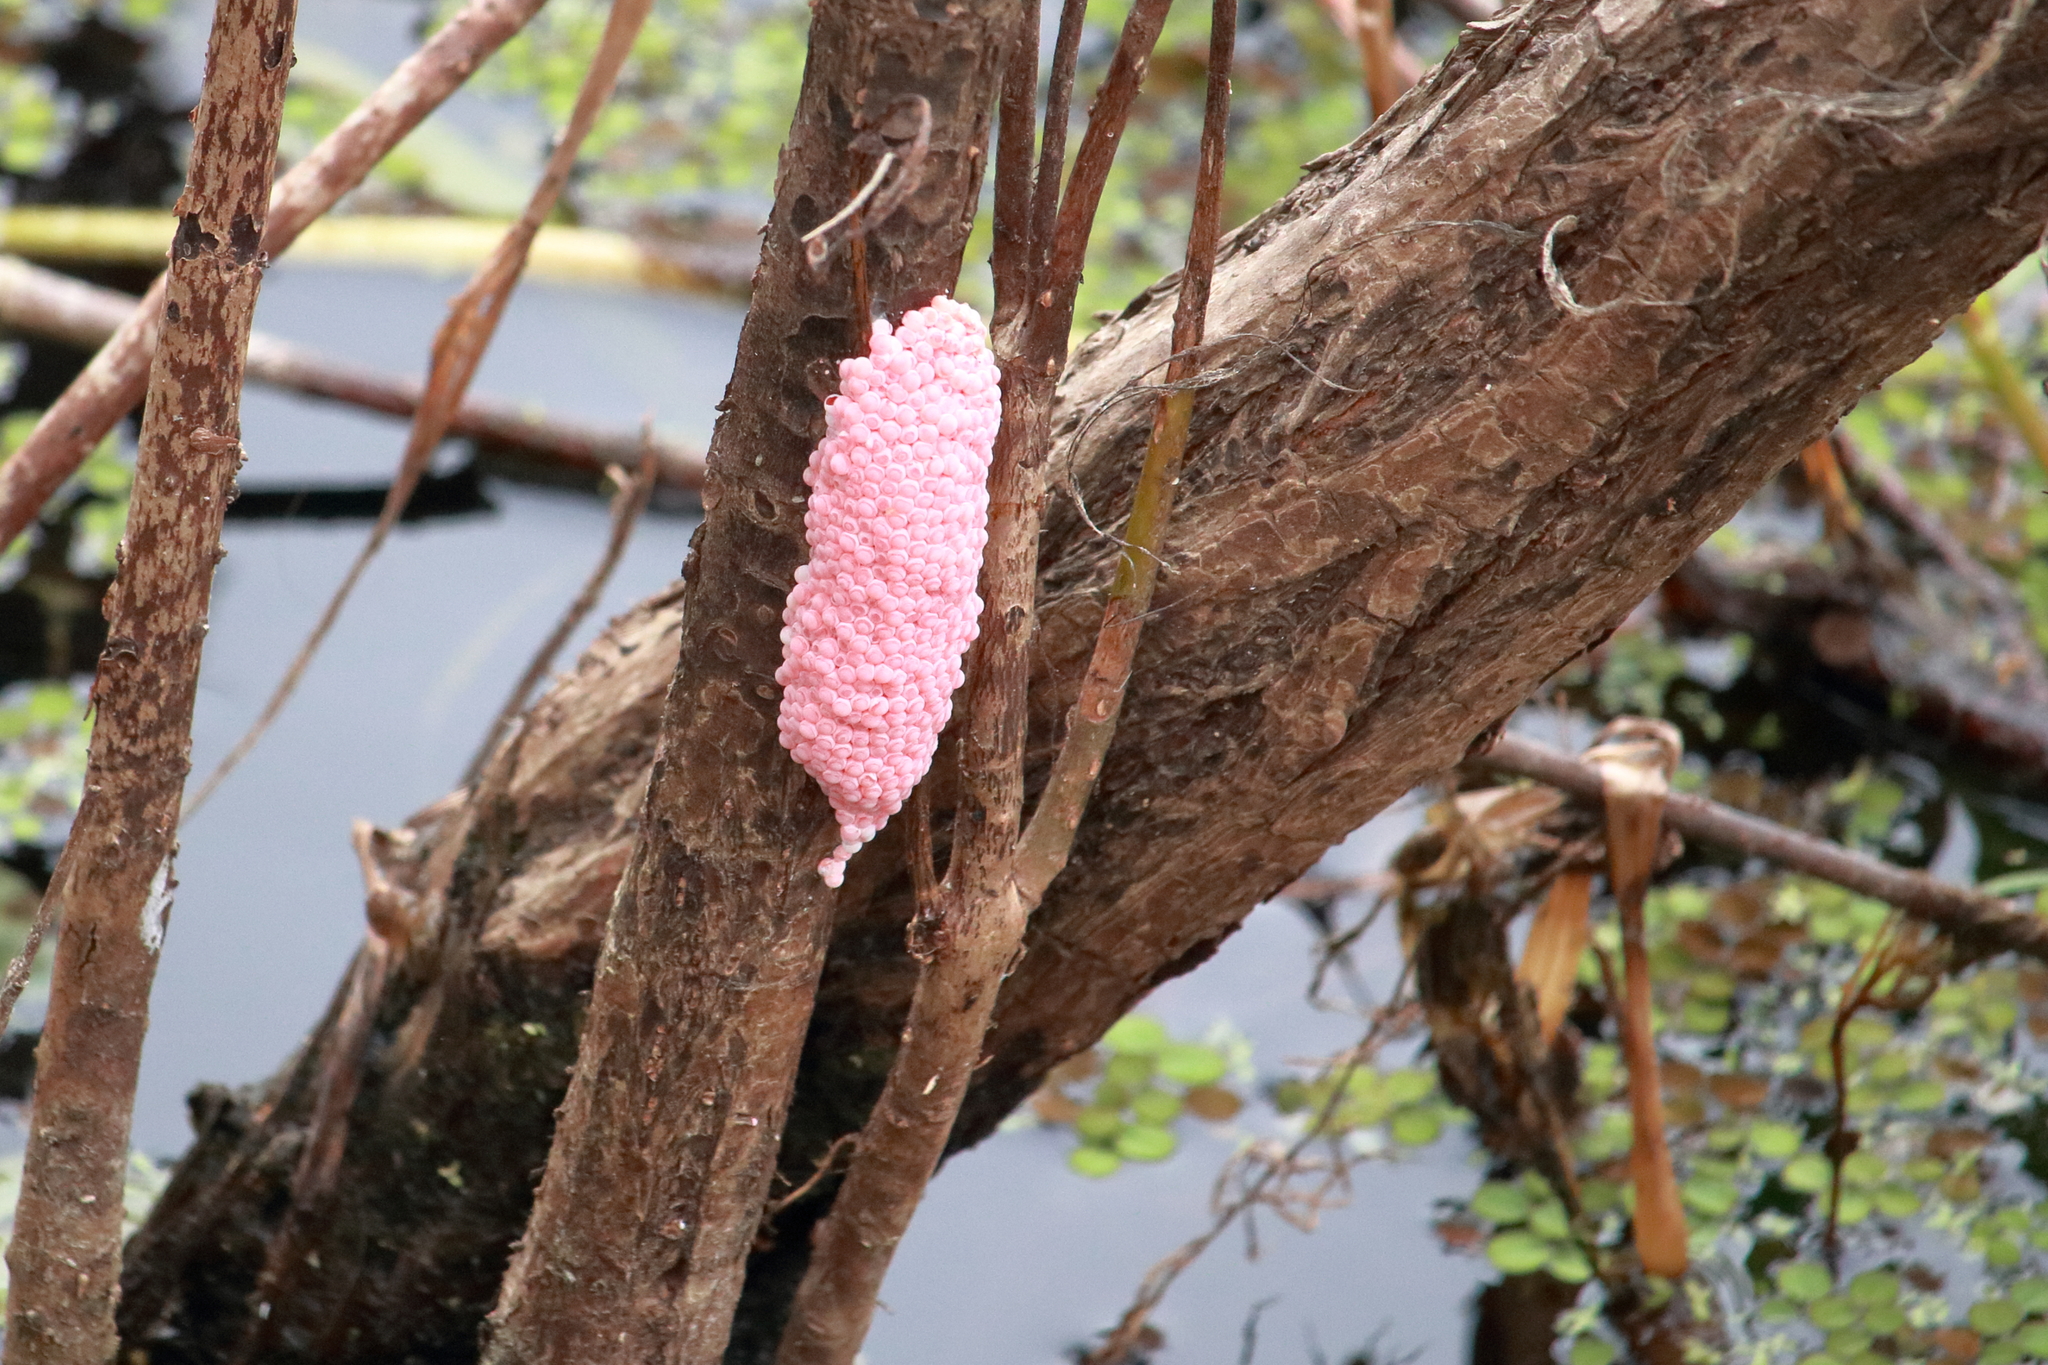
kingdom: Animalia
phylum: Mollusca
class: Gastropoda
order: Architaenioglossa
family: Ampullariidae
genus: Pomacea
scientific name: Pomacea maculata
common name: Giant applesnail
